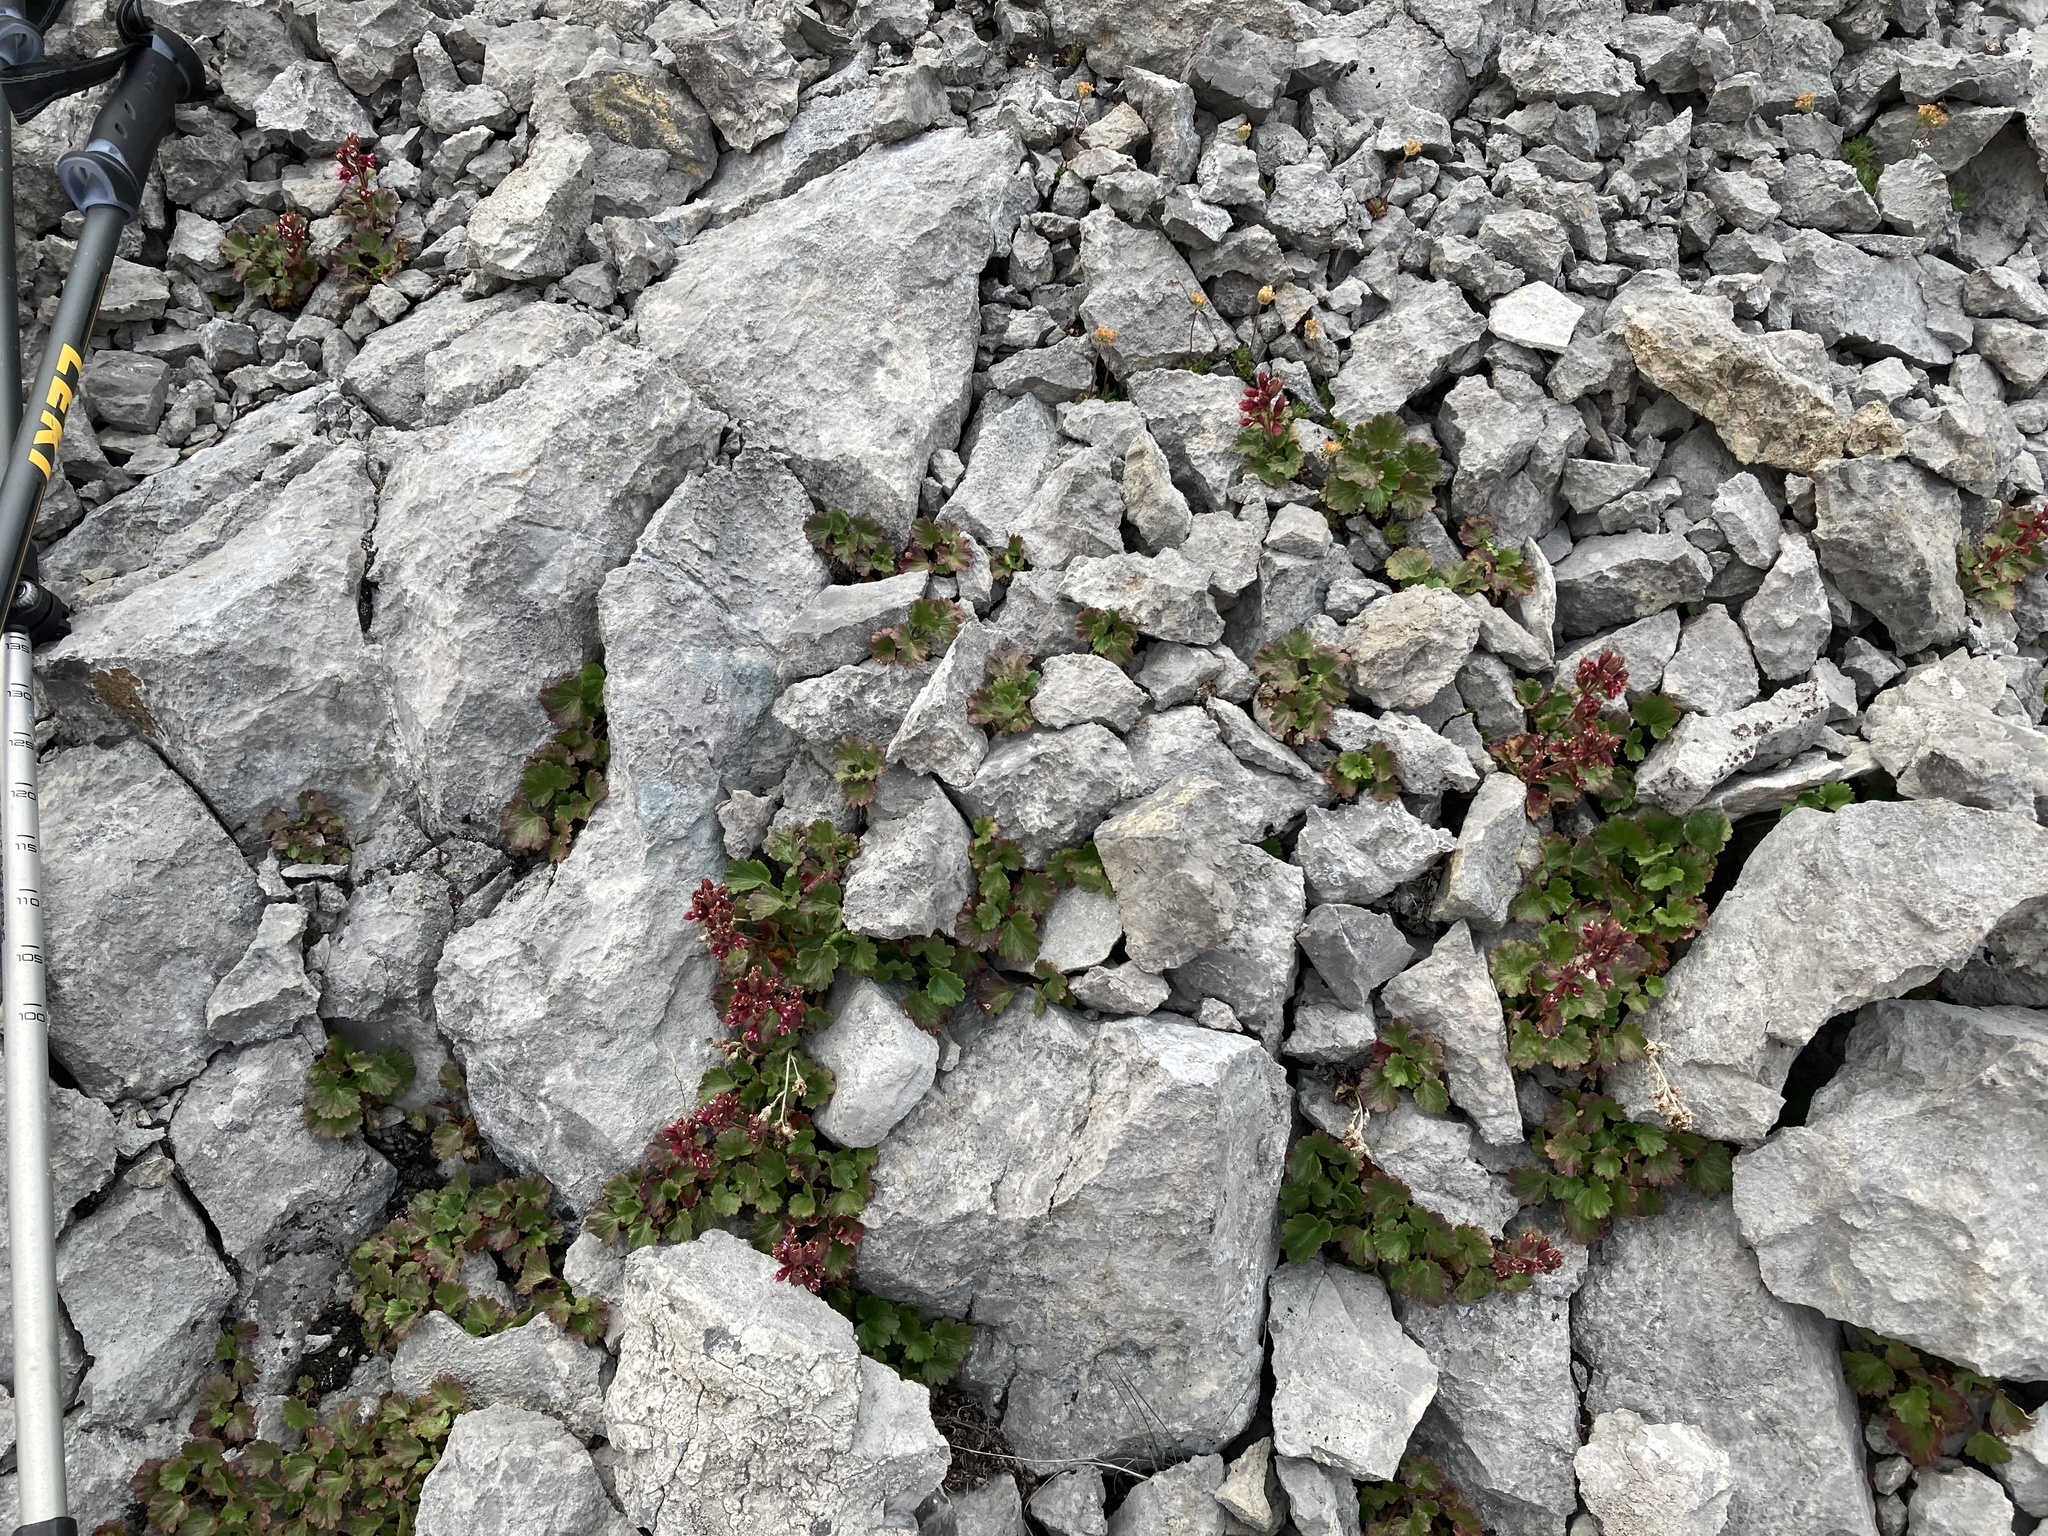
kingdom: Plantae
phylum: Tracheophyta
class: Magnoliopsida
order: Saxifragales
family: Saxifragaceae
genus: Telesonix
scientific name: Telesonix heucheriformis
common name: Alumroot brookfoam
